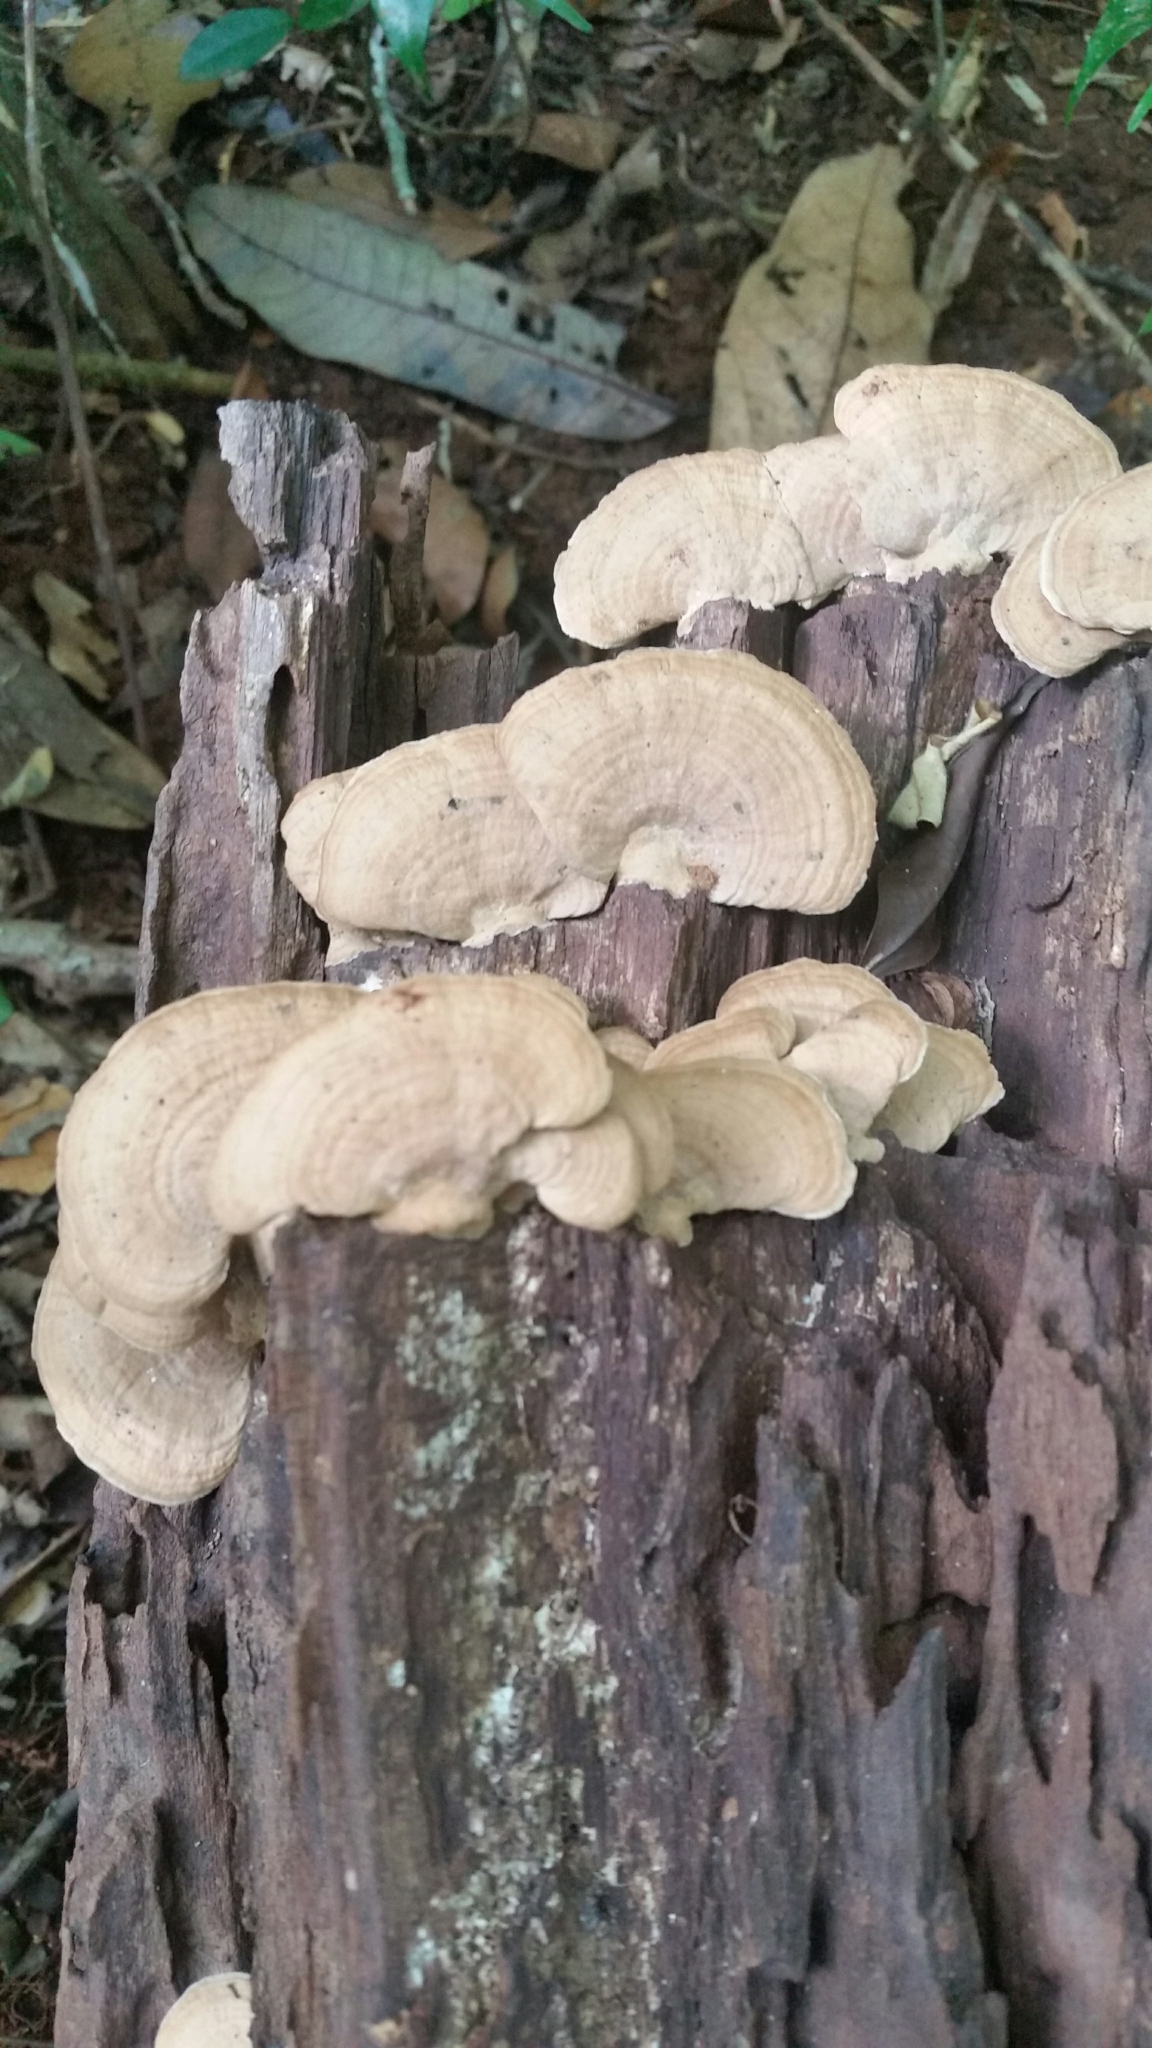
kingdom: Fungi
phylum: Basidiomycota
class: Agaricomycetes
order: Polyporales
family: Fomitopsidaceae
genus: Ranadivia
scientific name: Ranadivia modesta
